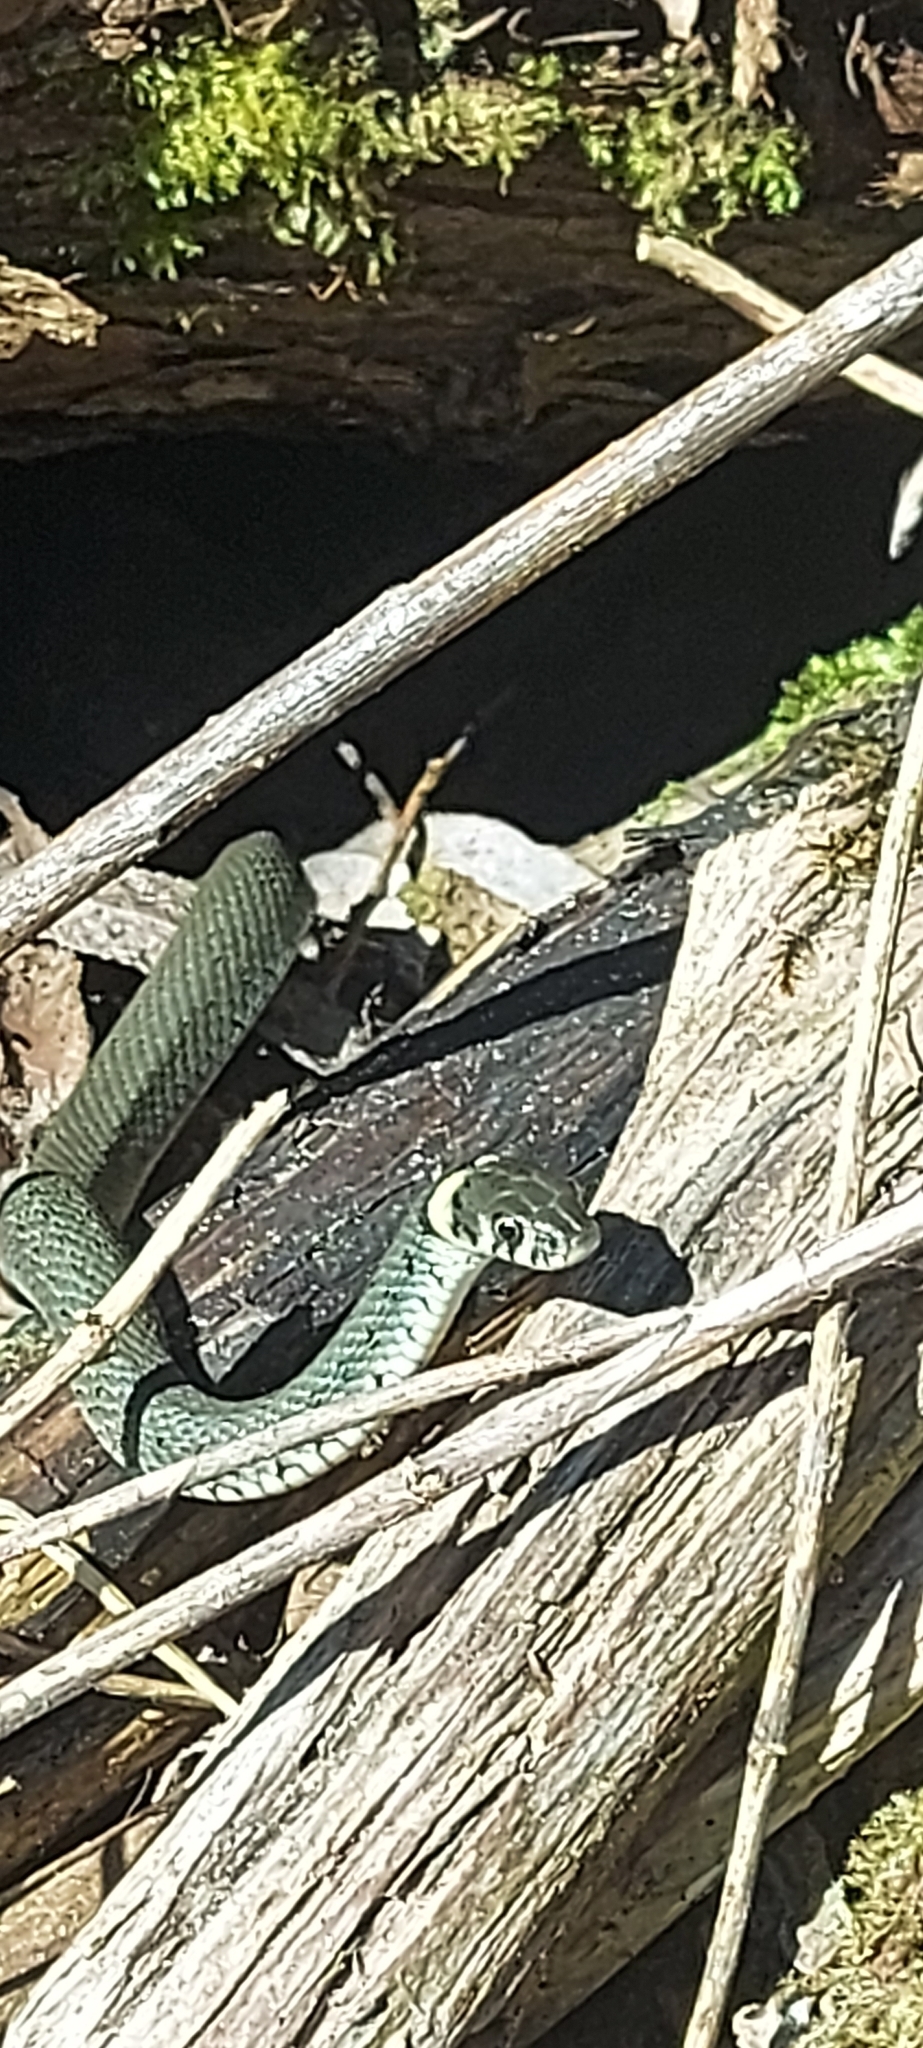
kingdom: Animalia
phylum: Chordata
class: Squamata
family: Colubridae
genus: Natrix
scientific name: Natrix natrix
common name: Grass snake
